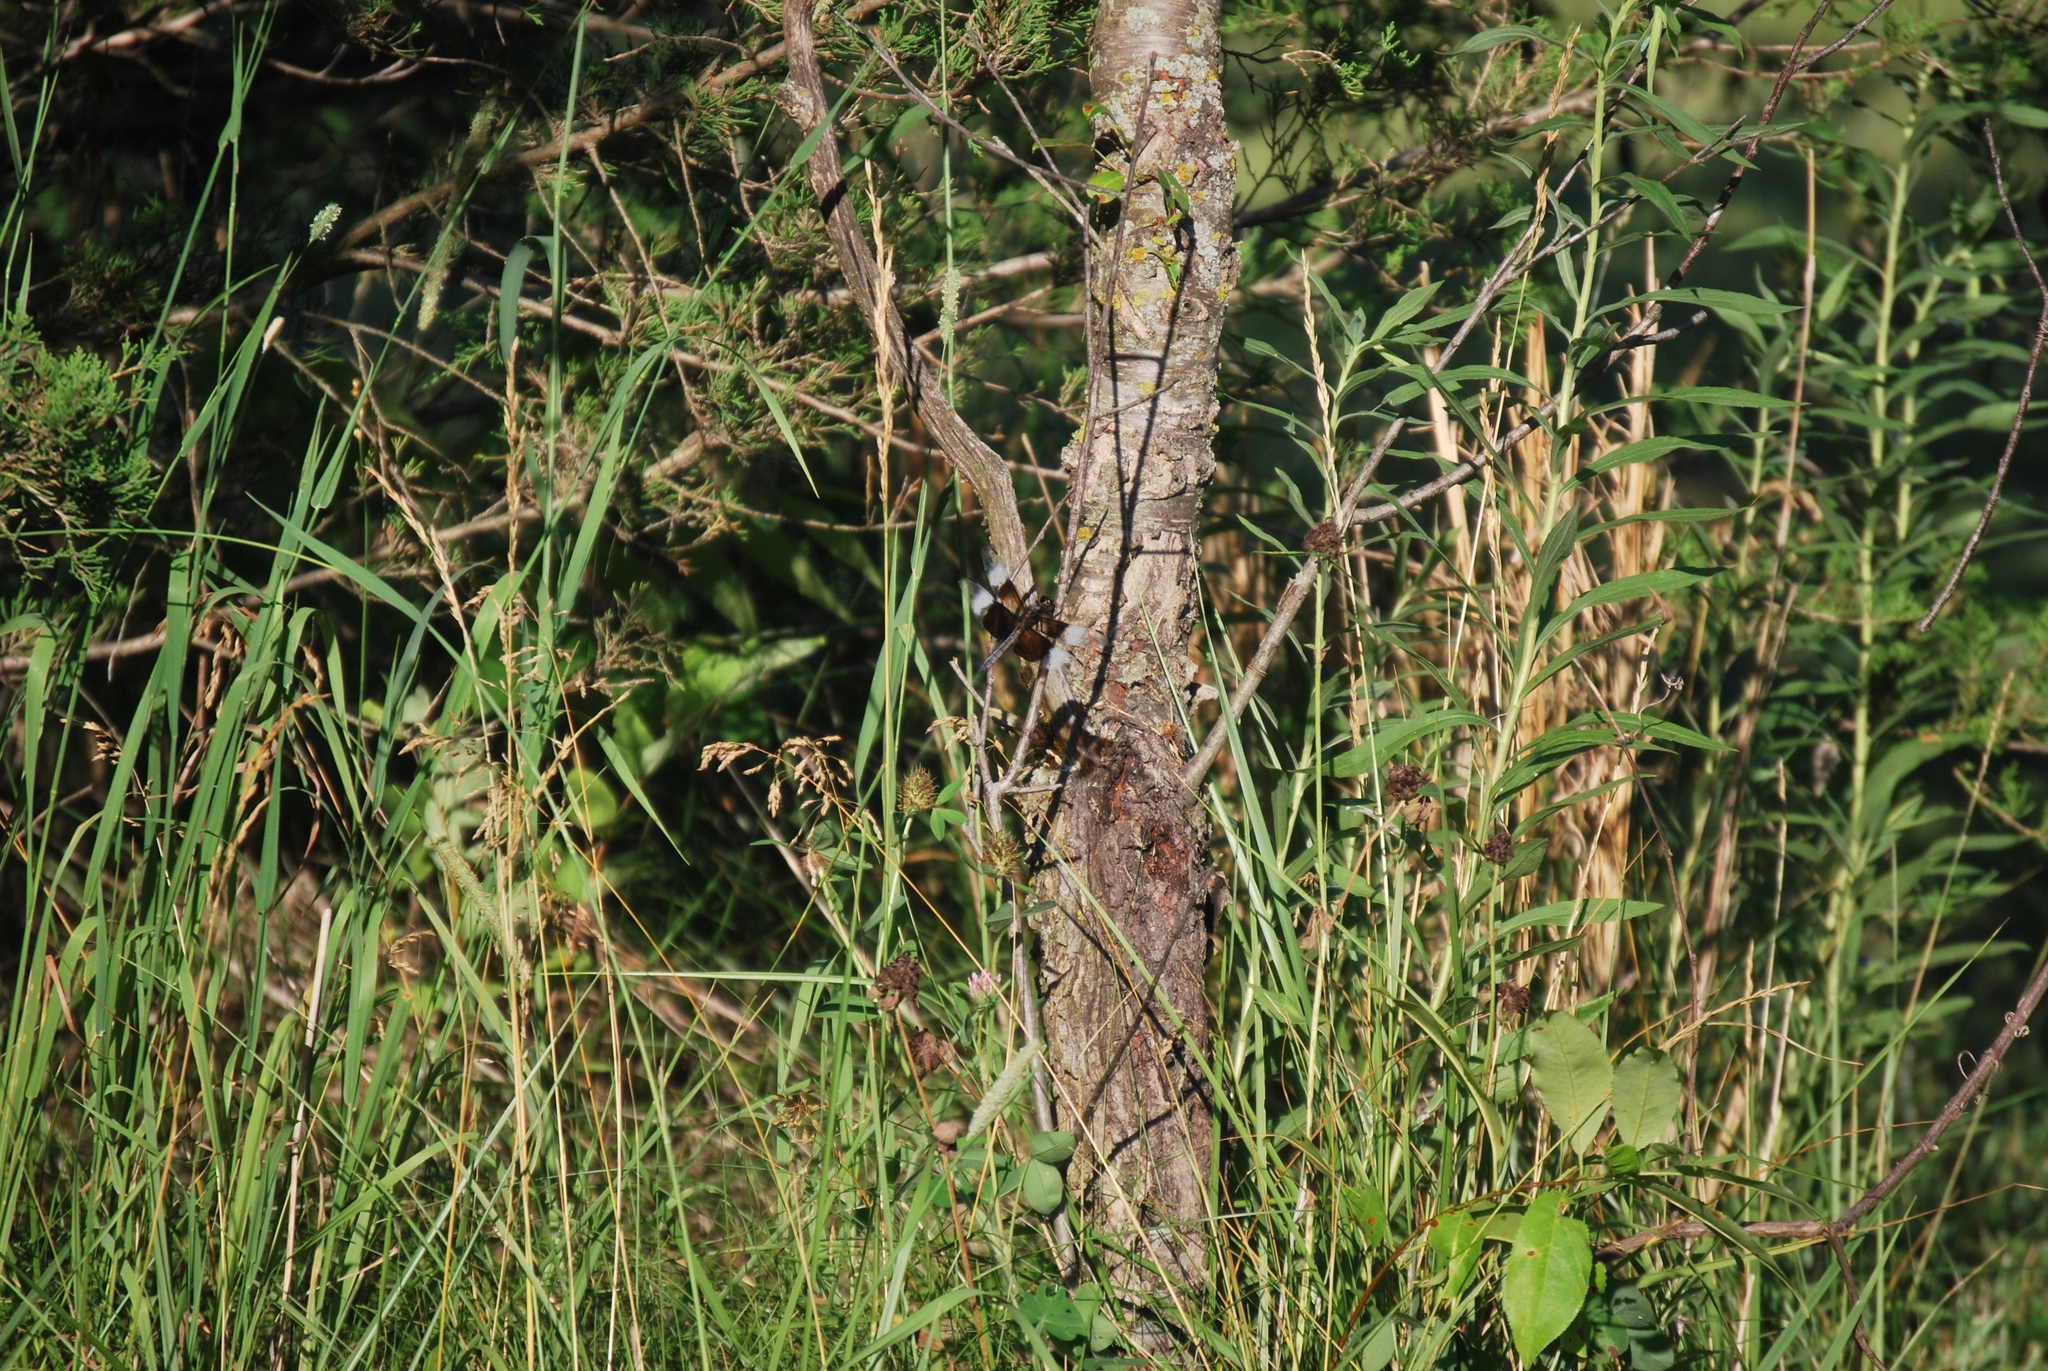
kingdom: Animalia
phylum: Arthropoda
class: Insecta
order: Odonata
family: Libellulidae
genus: Libellula
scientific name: Libellula luctuosa
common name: Widow skimmer
